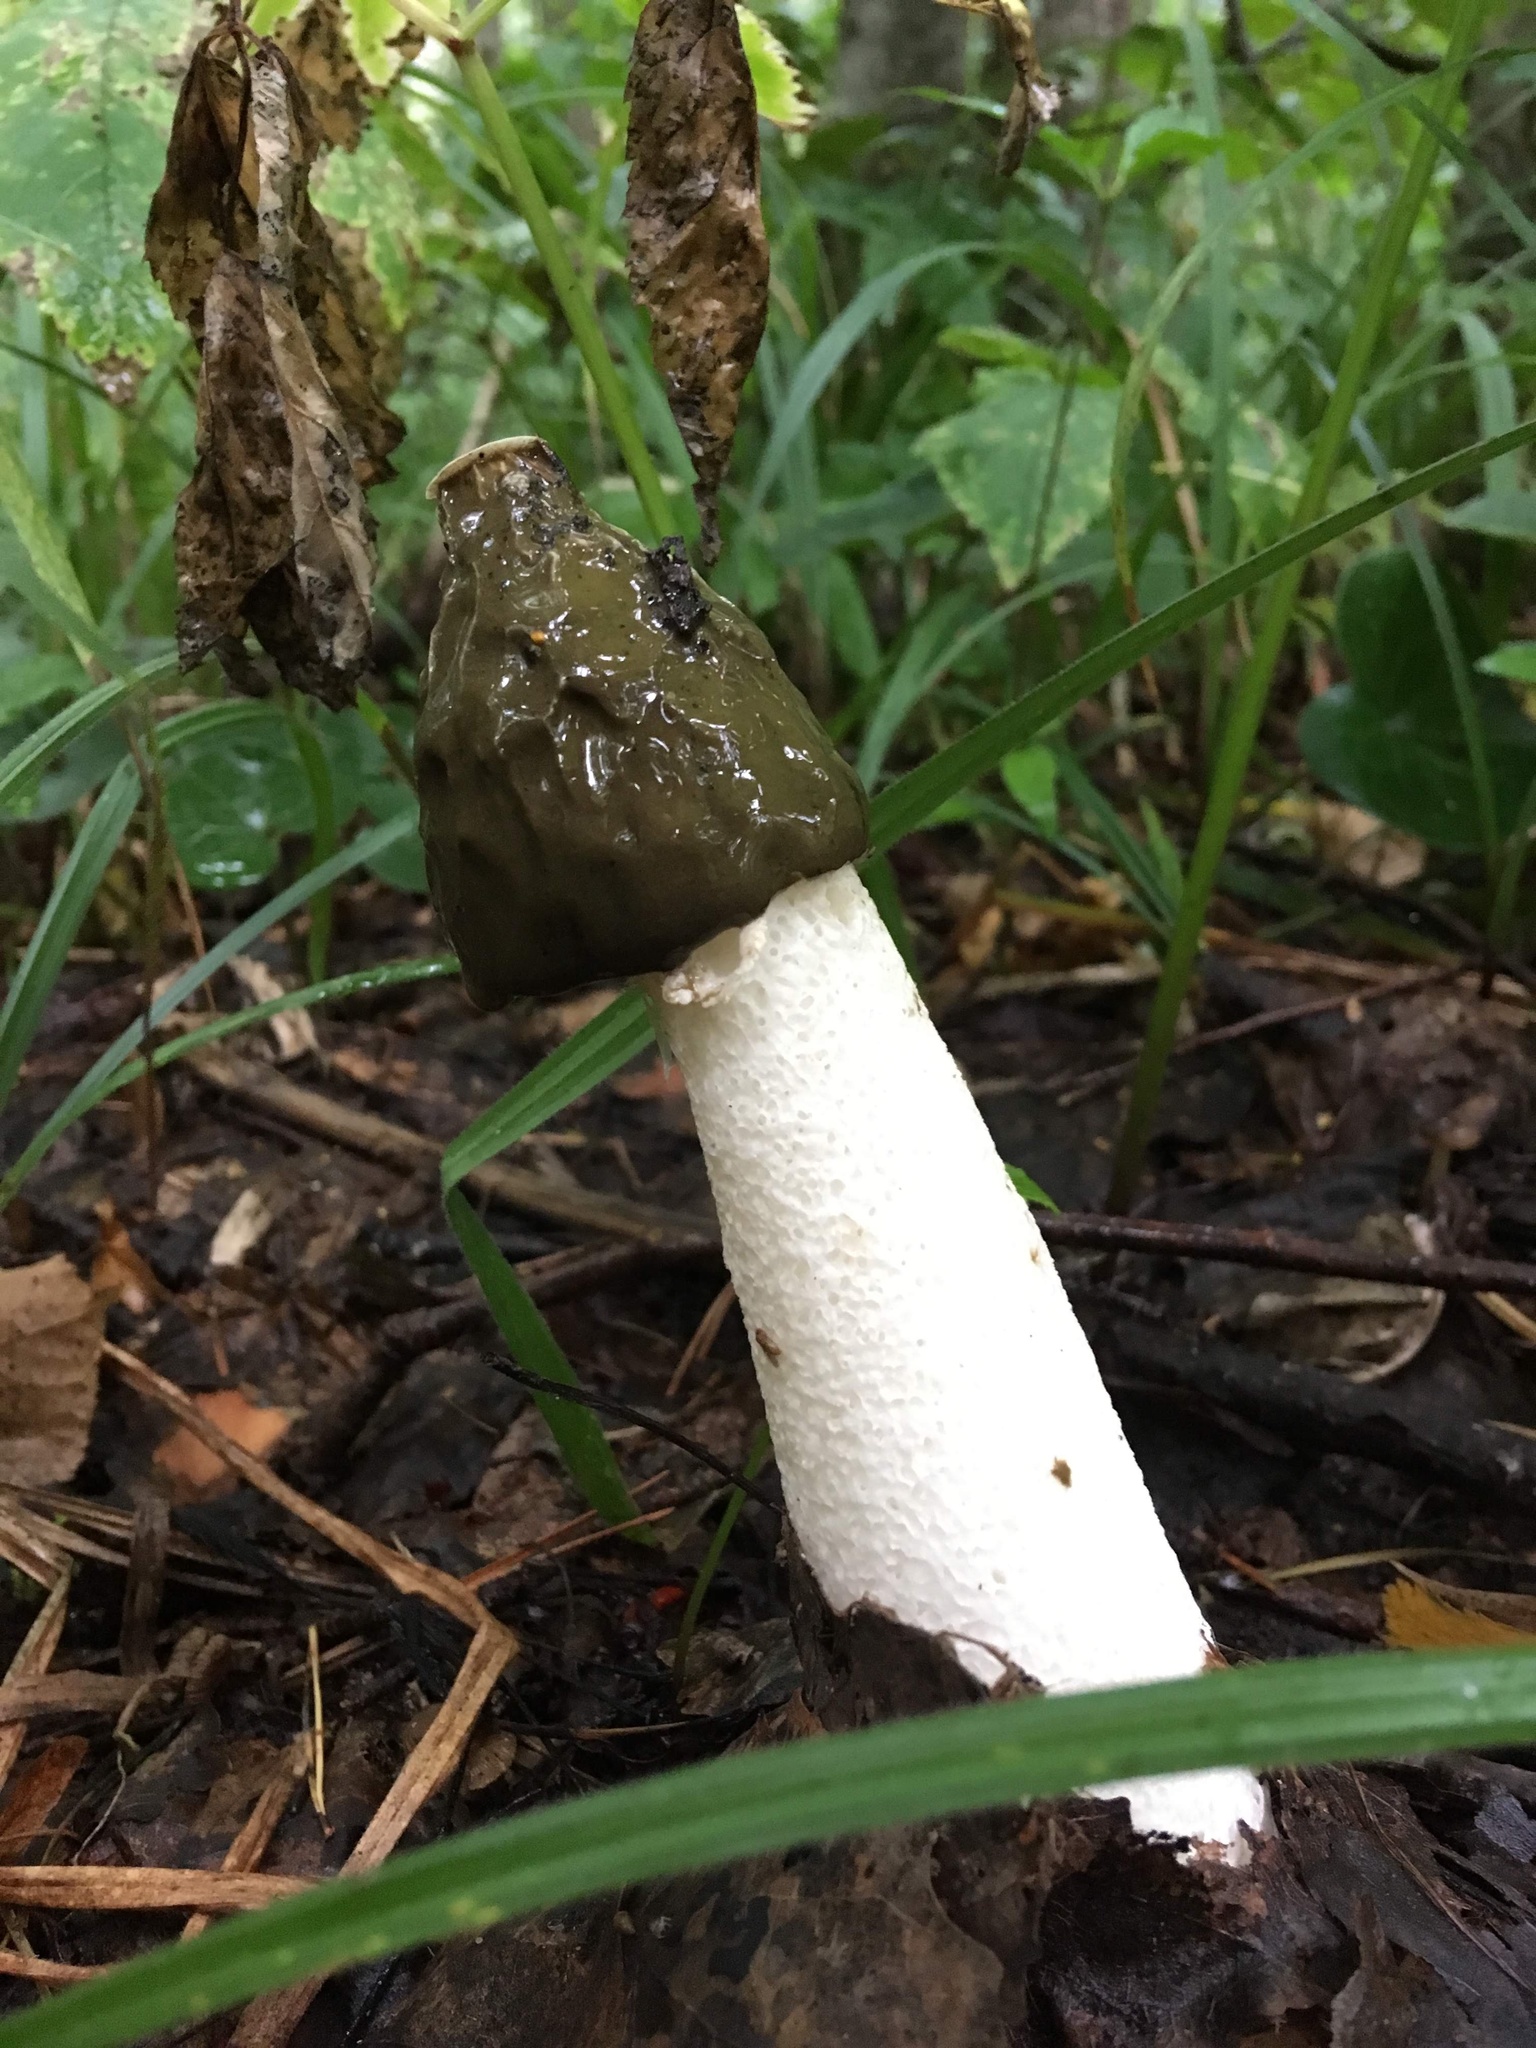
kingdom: Fungi
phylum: Basidiomycota
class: Agaricomycetes
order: Phallales
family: Phallaceae
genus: Phallus
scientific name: Phallus impudicus
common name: Common stinkhorn
